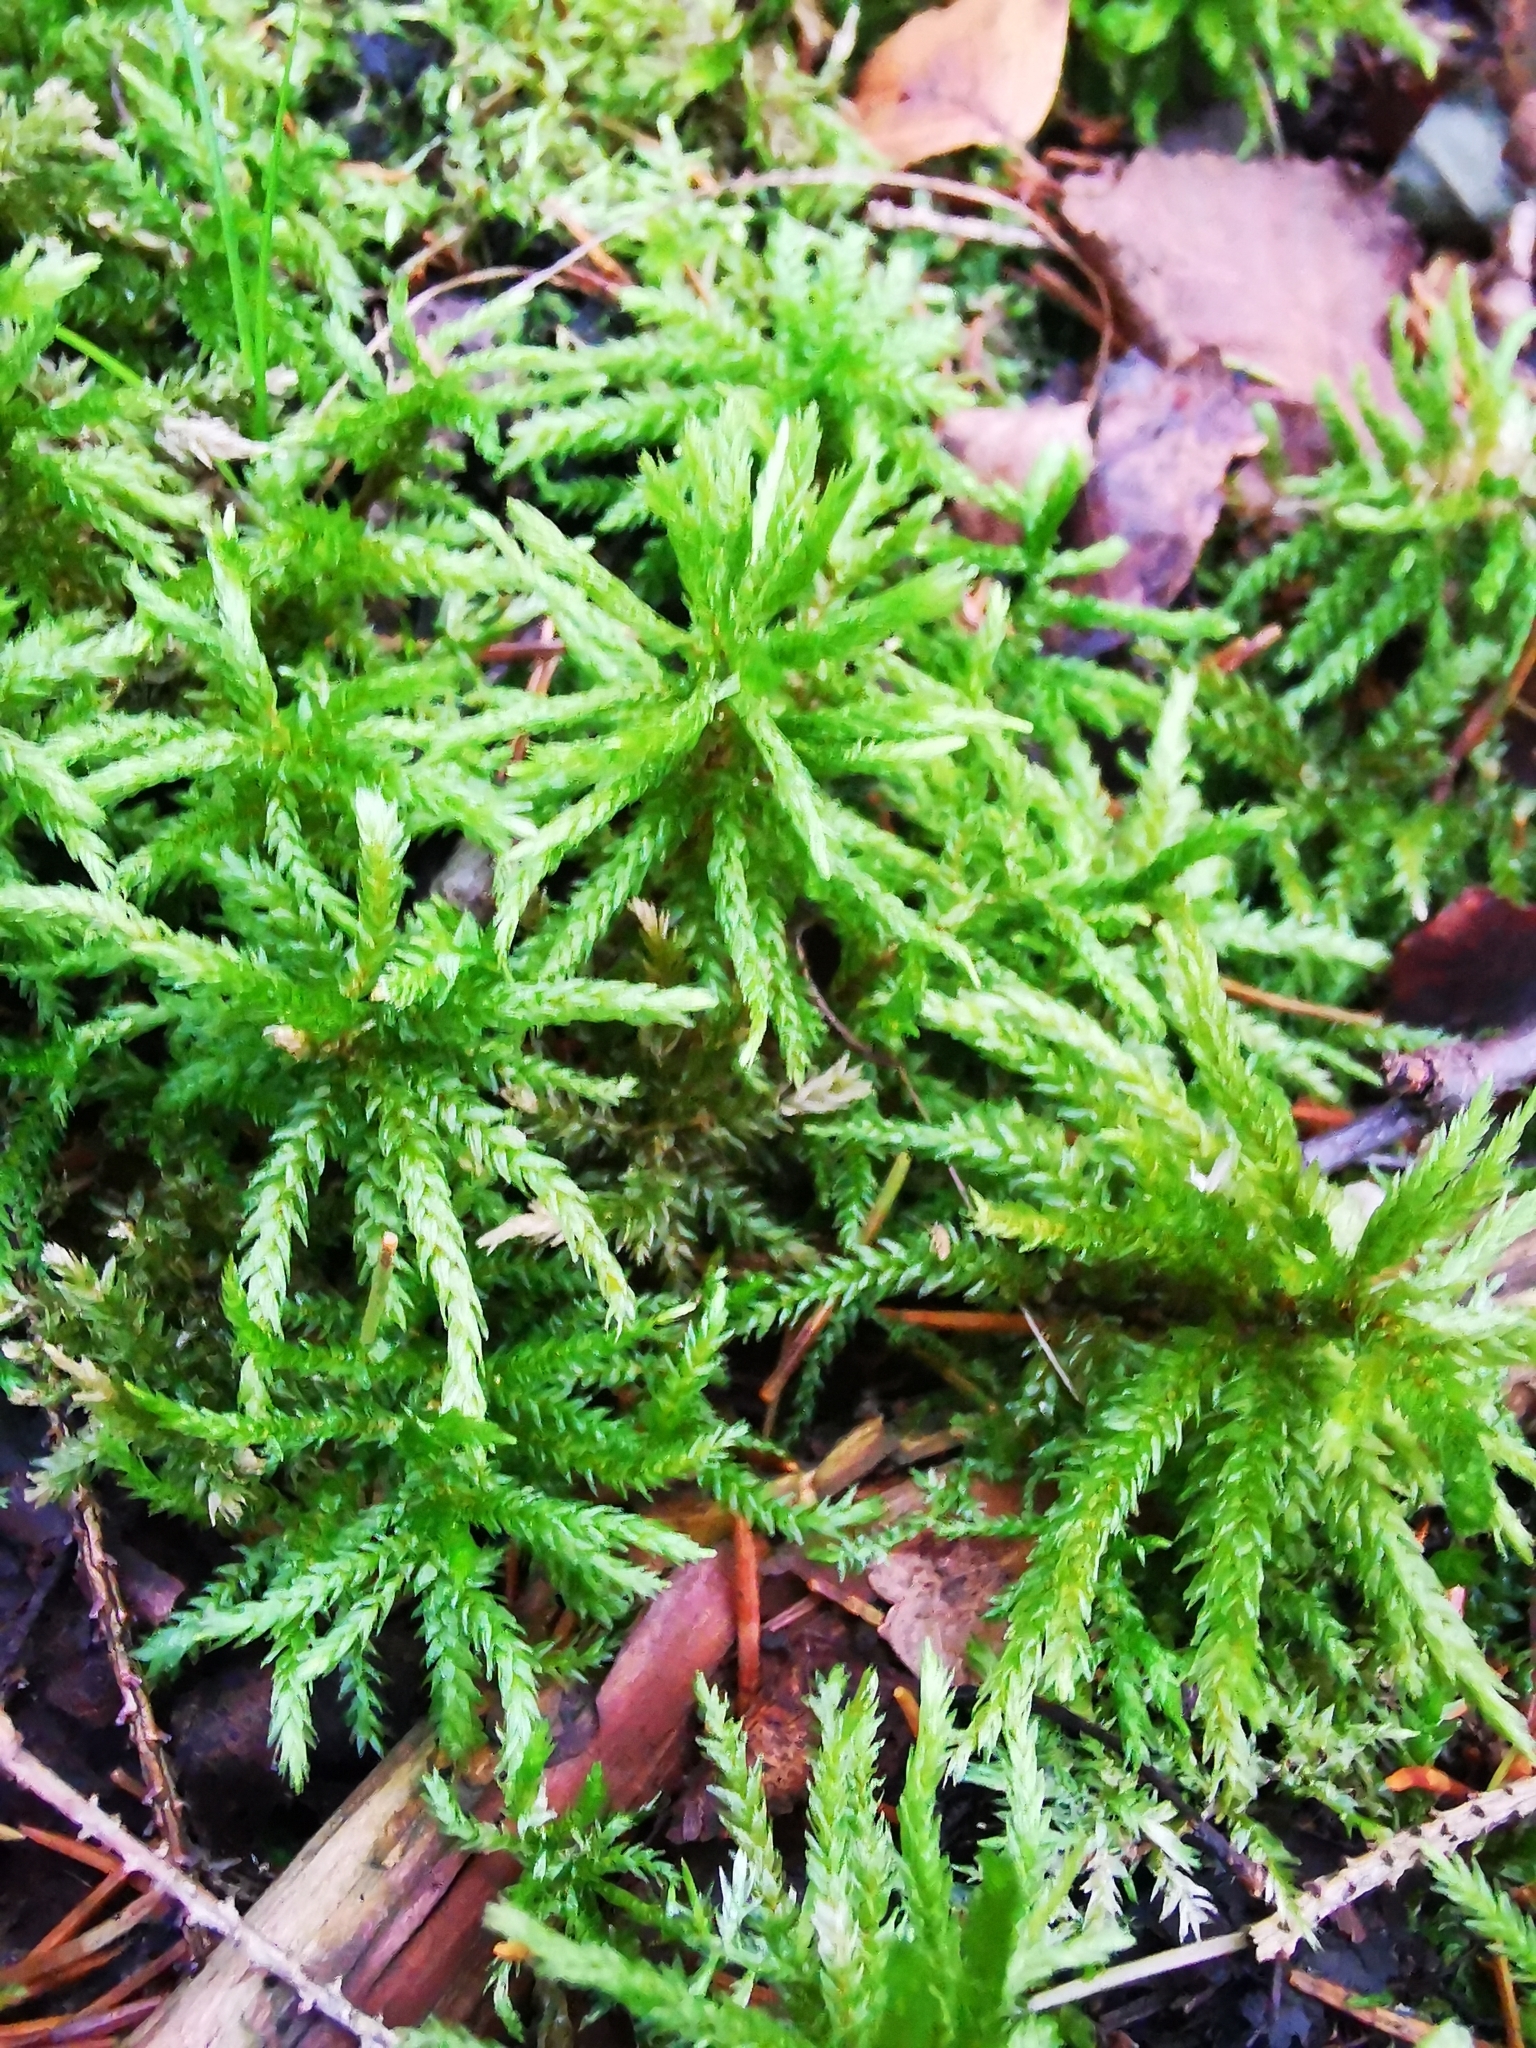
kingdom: Plantae
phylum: Bryophyta
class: Bryopsida
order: Hypnales
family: Climaciaceae
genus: Climacium
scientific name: Climacium dendroides
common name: Northern tree moss
